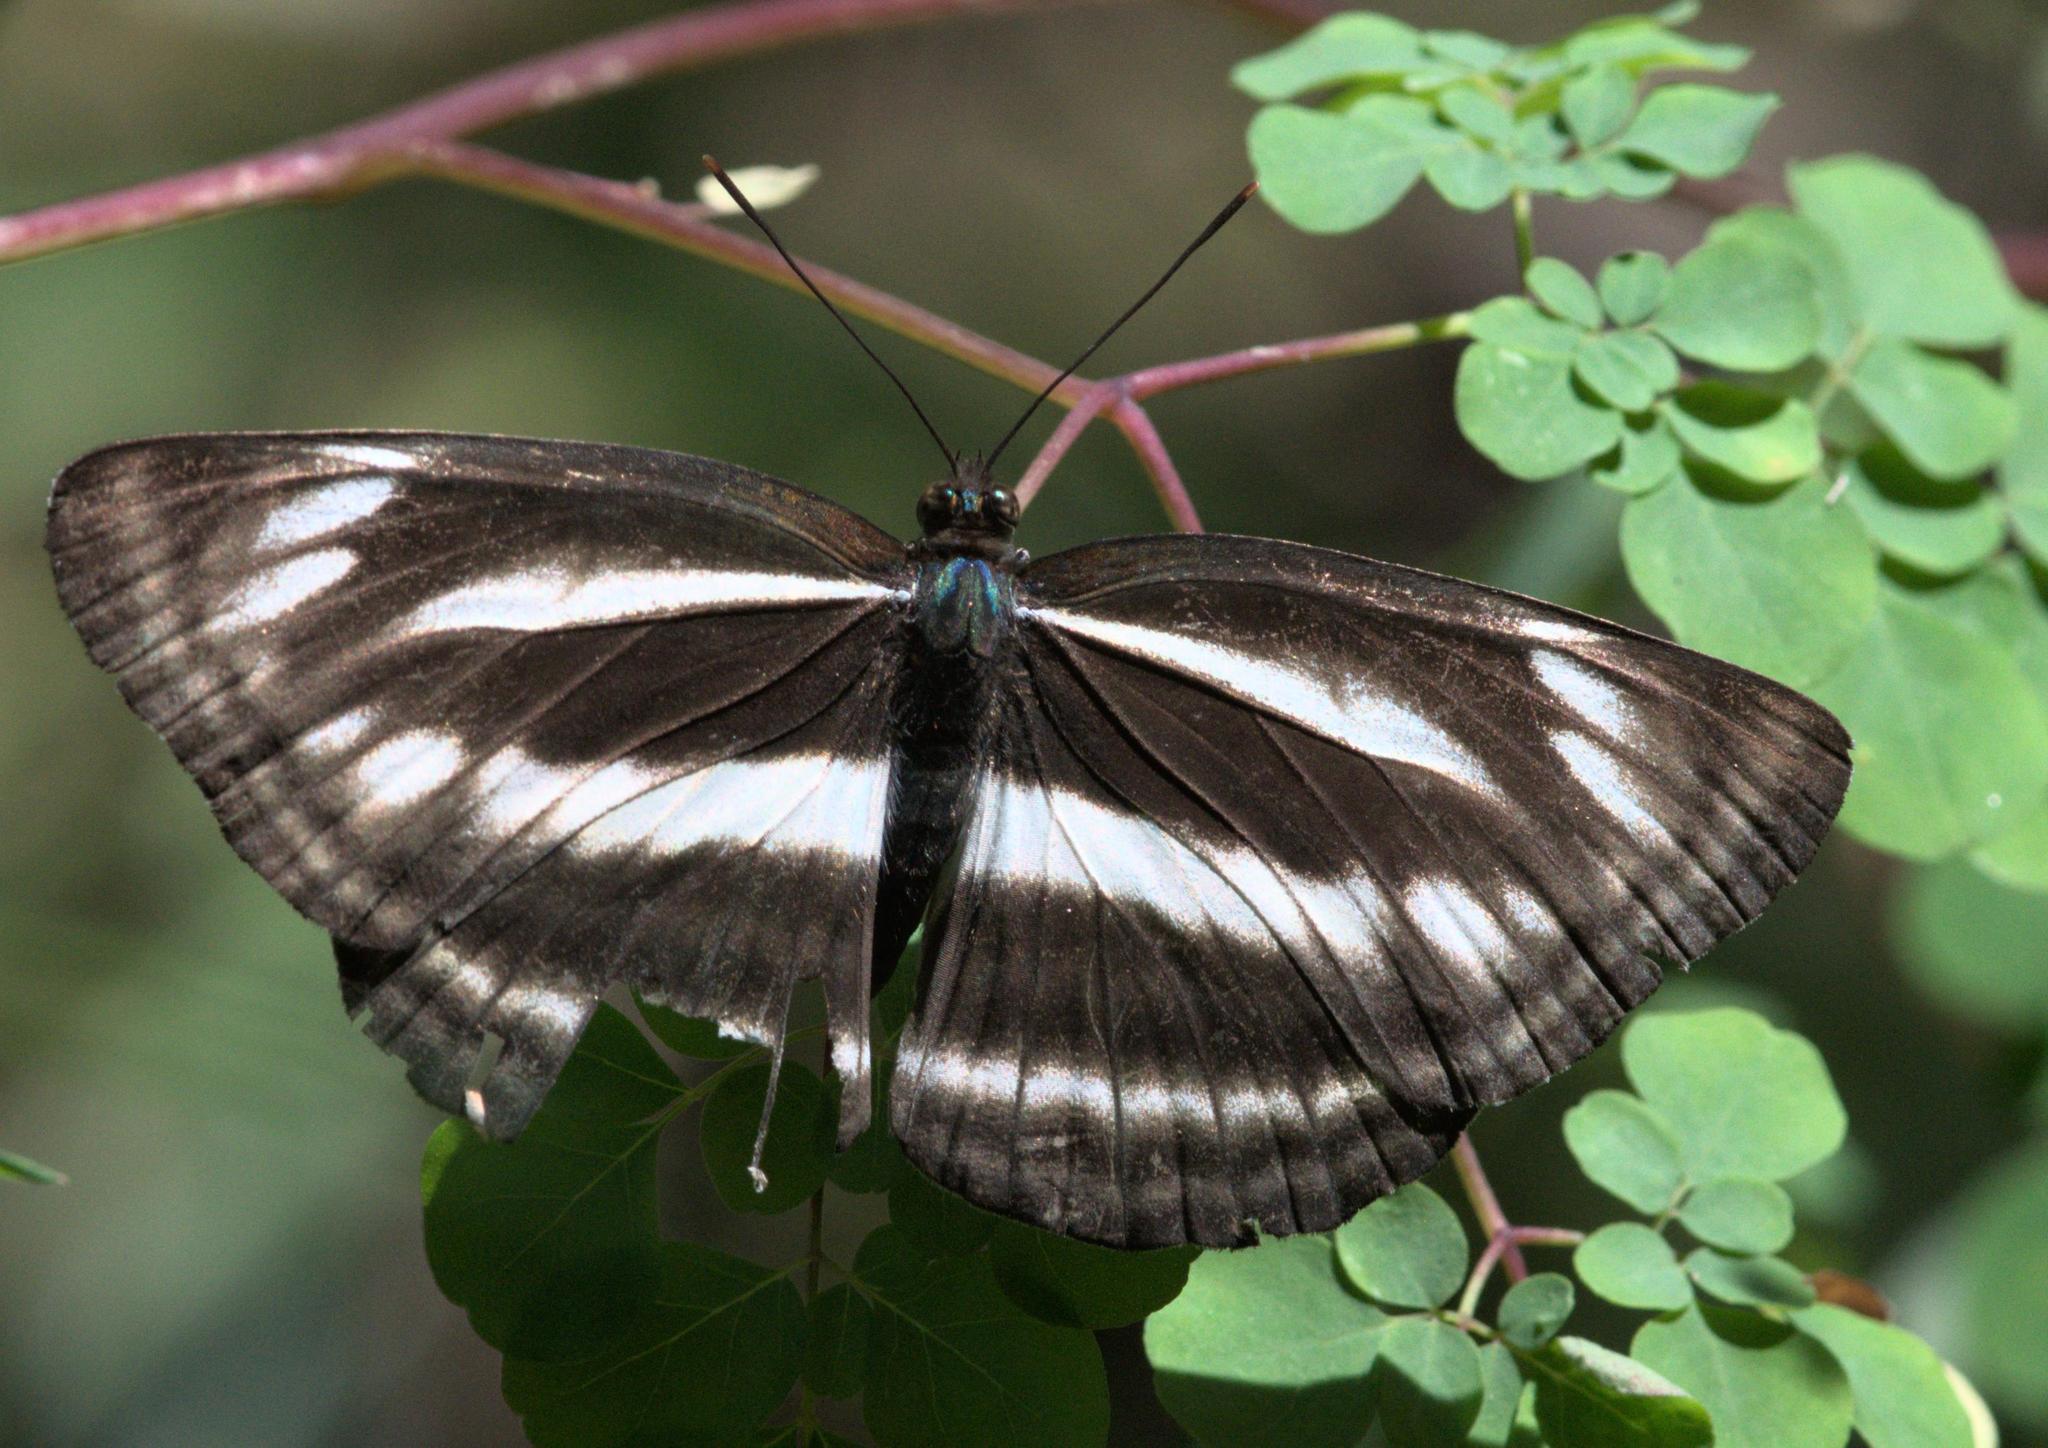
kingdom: Animalia
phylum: Arthropoda
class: Insecta
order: Lepidoptera
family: Nymphalidae
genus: Neptis
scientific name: Neptis sankara
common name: Broad-banded sailer
